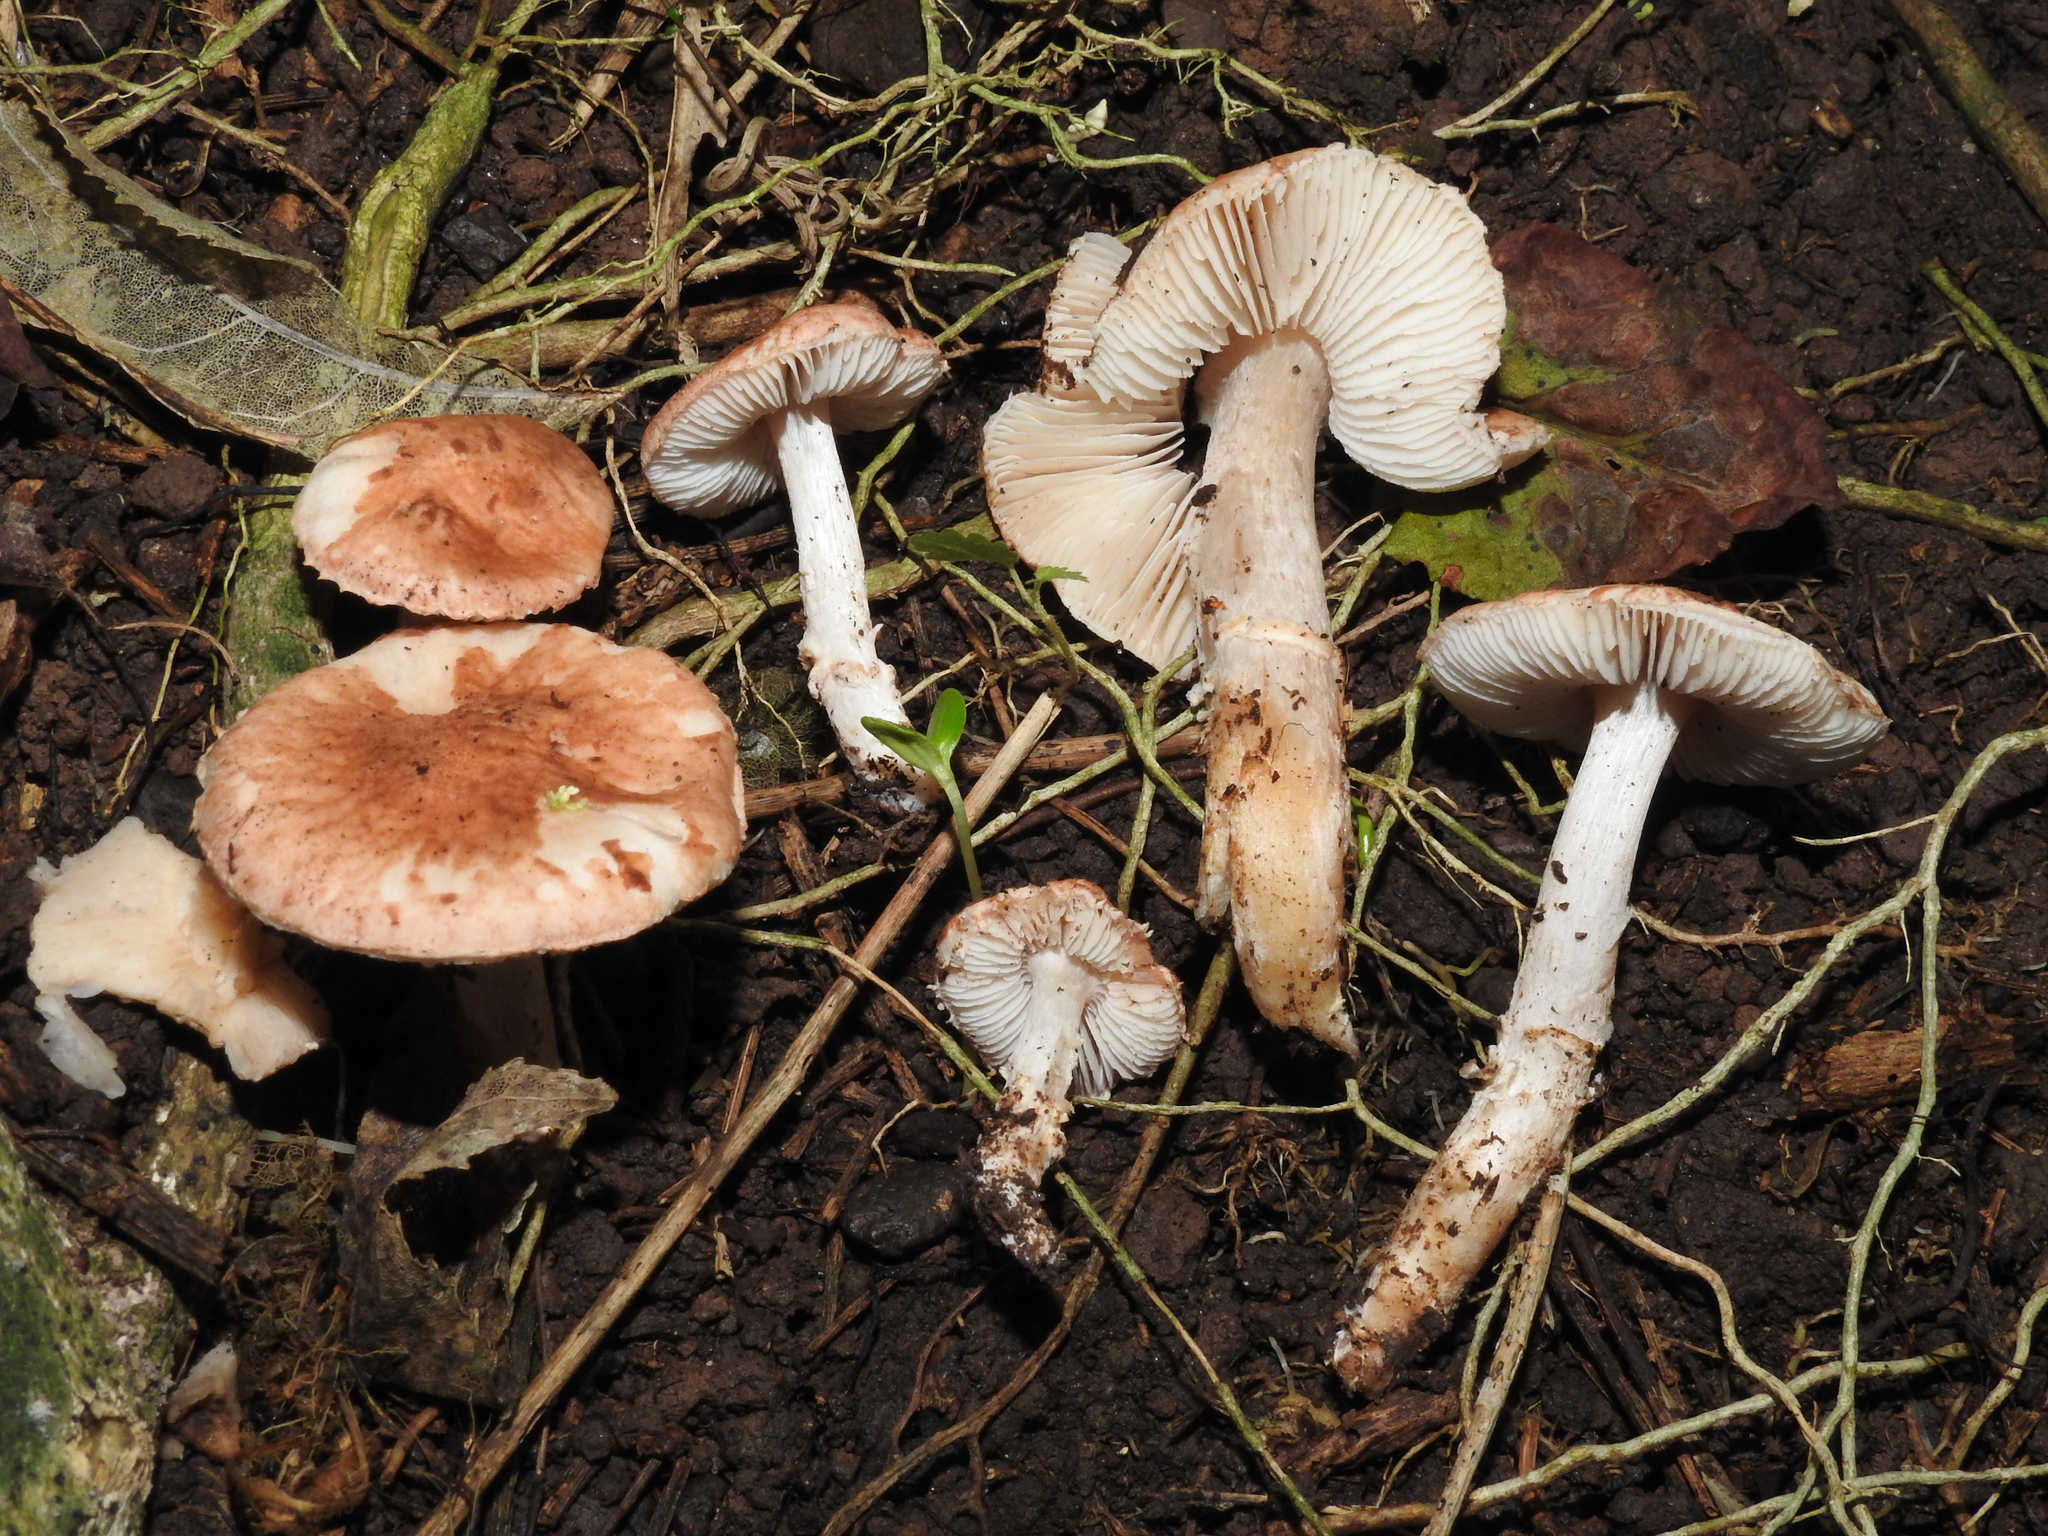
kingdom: Fungi
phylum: Basidiomycota
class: Agaricomycetes
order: Agaricales
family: Amanitaceae
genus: Limacella
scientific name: Limacella wheroparaonea
